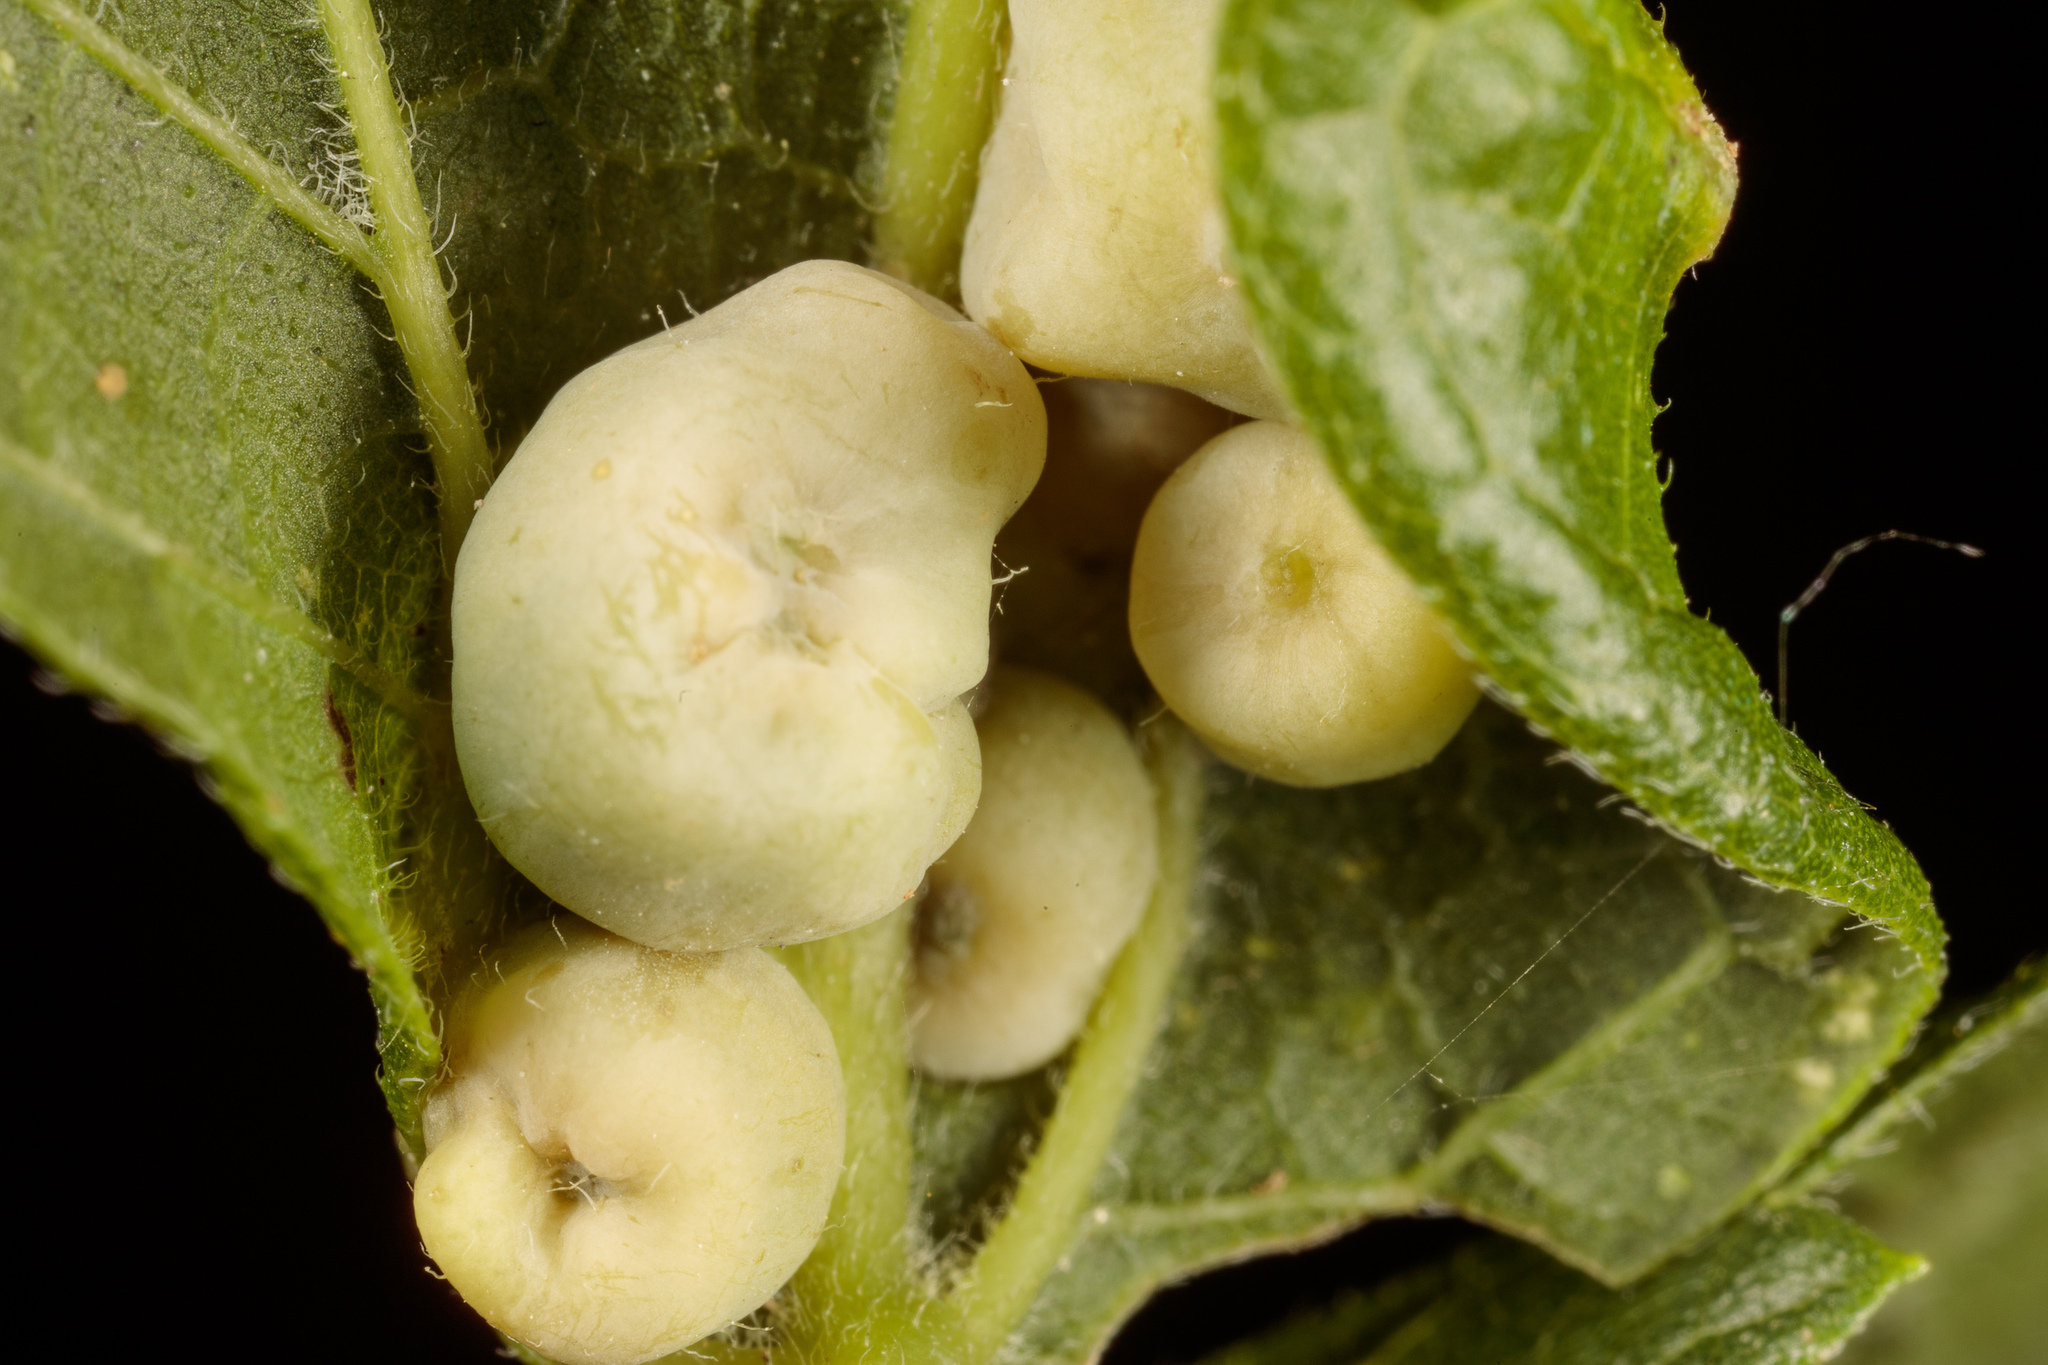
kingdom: Animalia
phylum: Arthropoda
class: Insecta
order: Hemiptera
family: Aphalaridae
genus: Pachypsylla
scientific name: Pachypsylla celtidismamma
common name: Hackberry nipplegall psyllid
